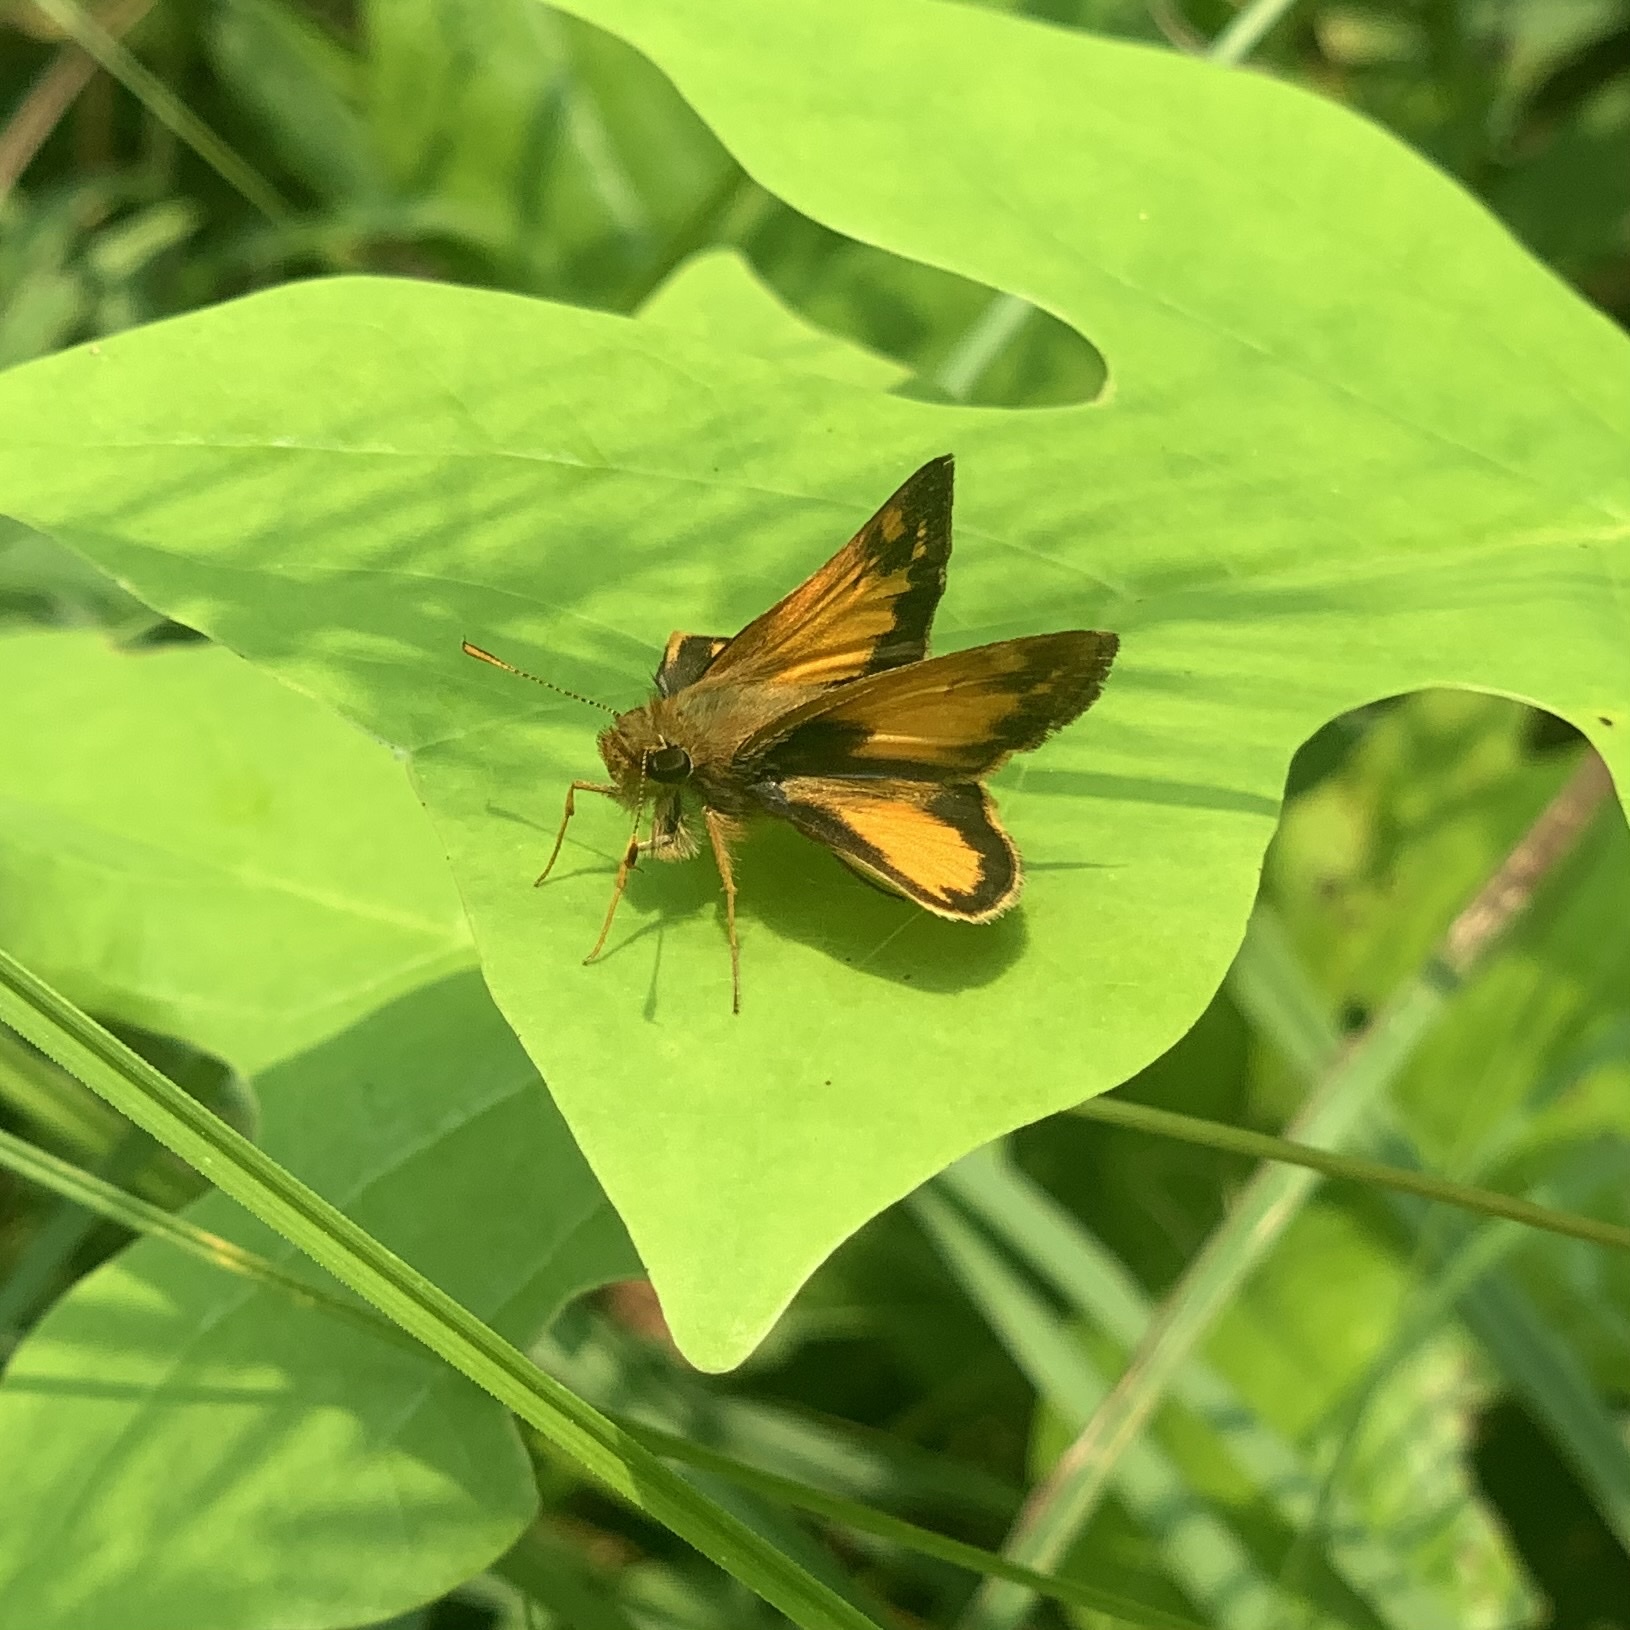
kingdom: Animalia
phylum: Arthropoda
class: Insecta
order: Lepidoptera
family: Hesperiidae
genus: Lon
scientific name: Lon zabulon
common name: Zabulon skipper
